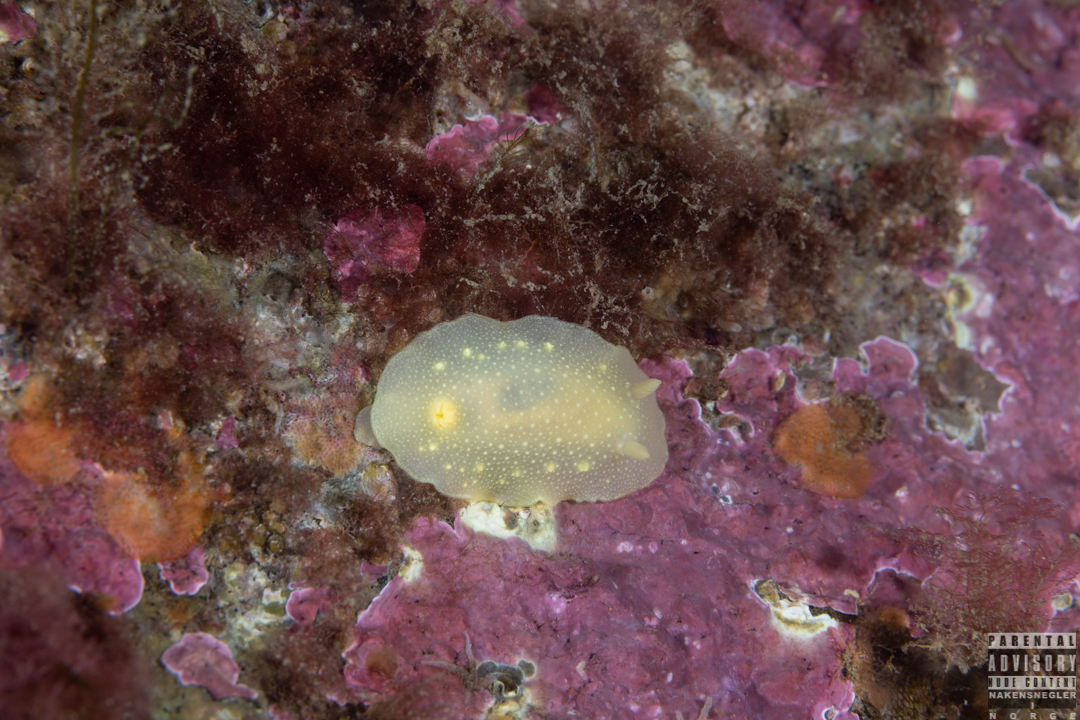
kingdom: Animalia
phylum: Mollusca
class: Gastropoda
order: Nudibranchia
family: Cadlinidae
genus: Cadlina
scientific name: Cadlina laevis
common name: White atlantic cadlina
